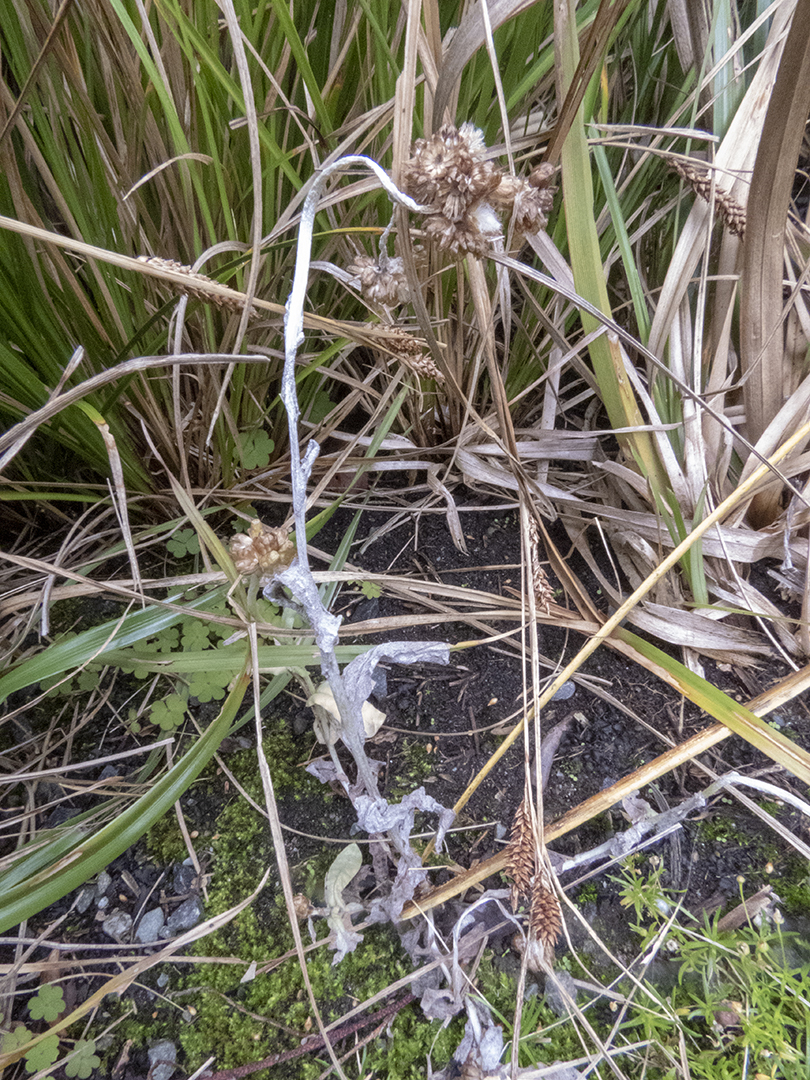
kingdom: Plantae
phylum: Tracheophyta
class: Magnoliopsida
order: Asterales
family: Asteraceae
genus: Helichrysum
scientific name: Helichrysum luteoalbum
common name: Daisy
